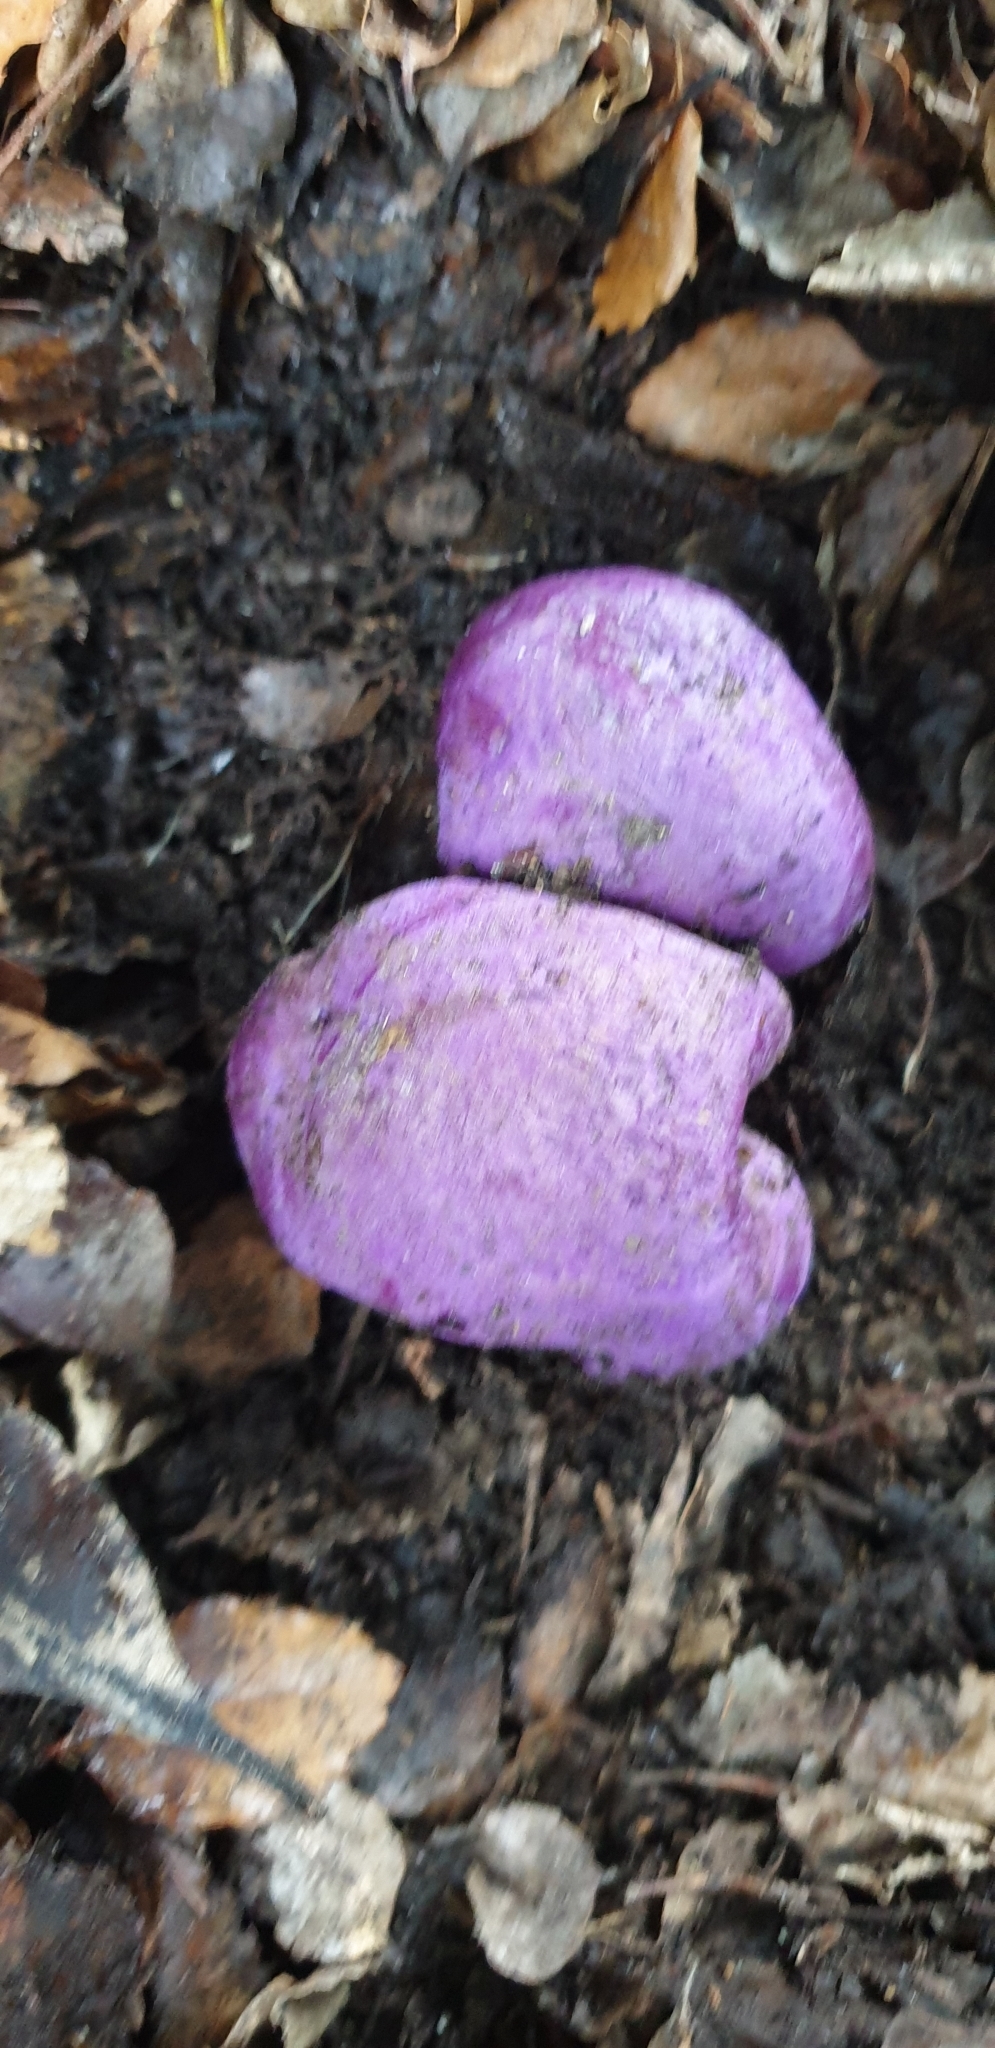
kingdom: Fungi
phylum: Basidiomycota
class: Agaricomycetes
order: Hysterangiales
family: Gallaceaceae
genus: Gallacea
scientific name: Gallacea scleroderma
